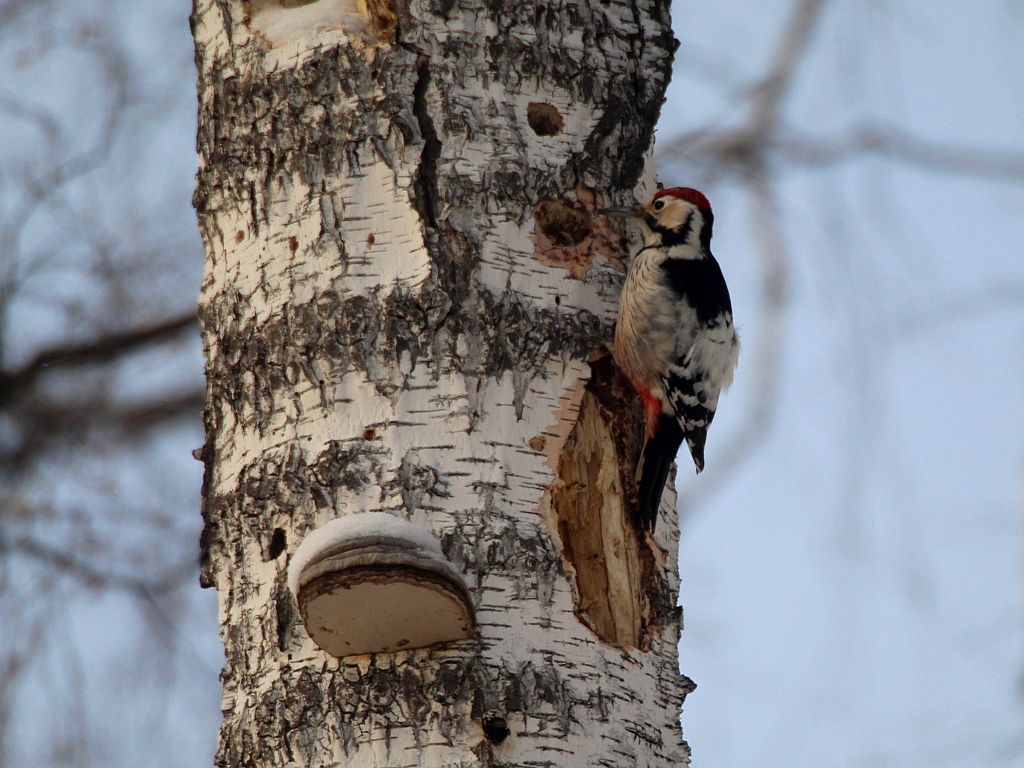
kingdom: Animalia
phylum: Chordata
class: Aves
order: Piciformes
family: Picidae
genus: Dendrocopos
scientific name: Dendrocopos leucotos
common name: White-backed woodpecker
